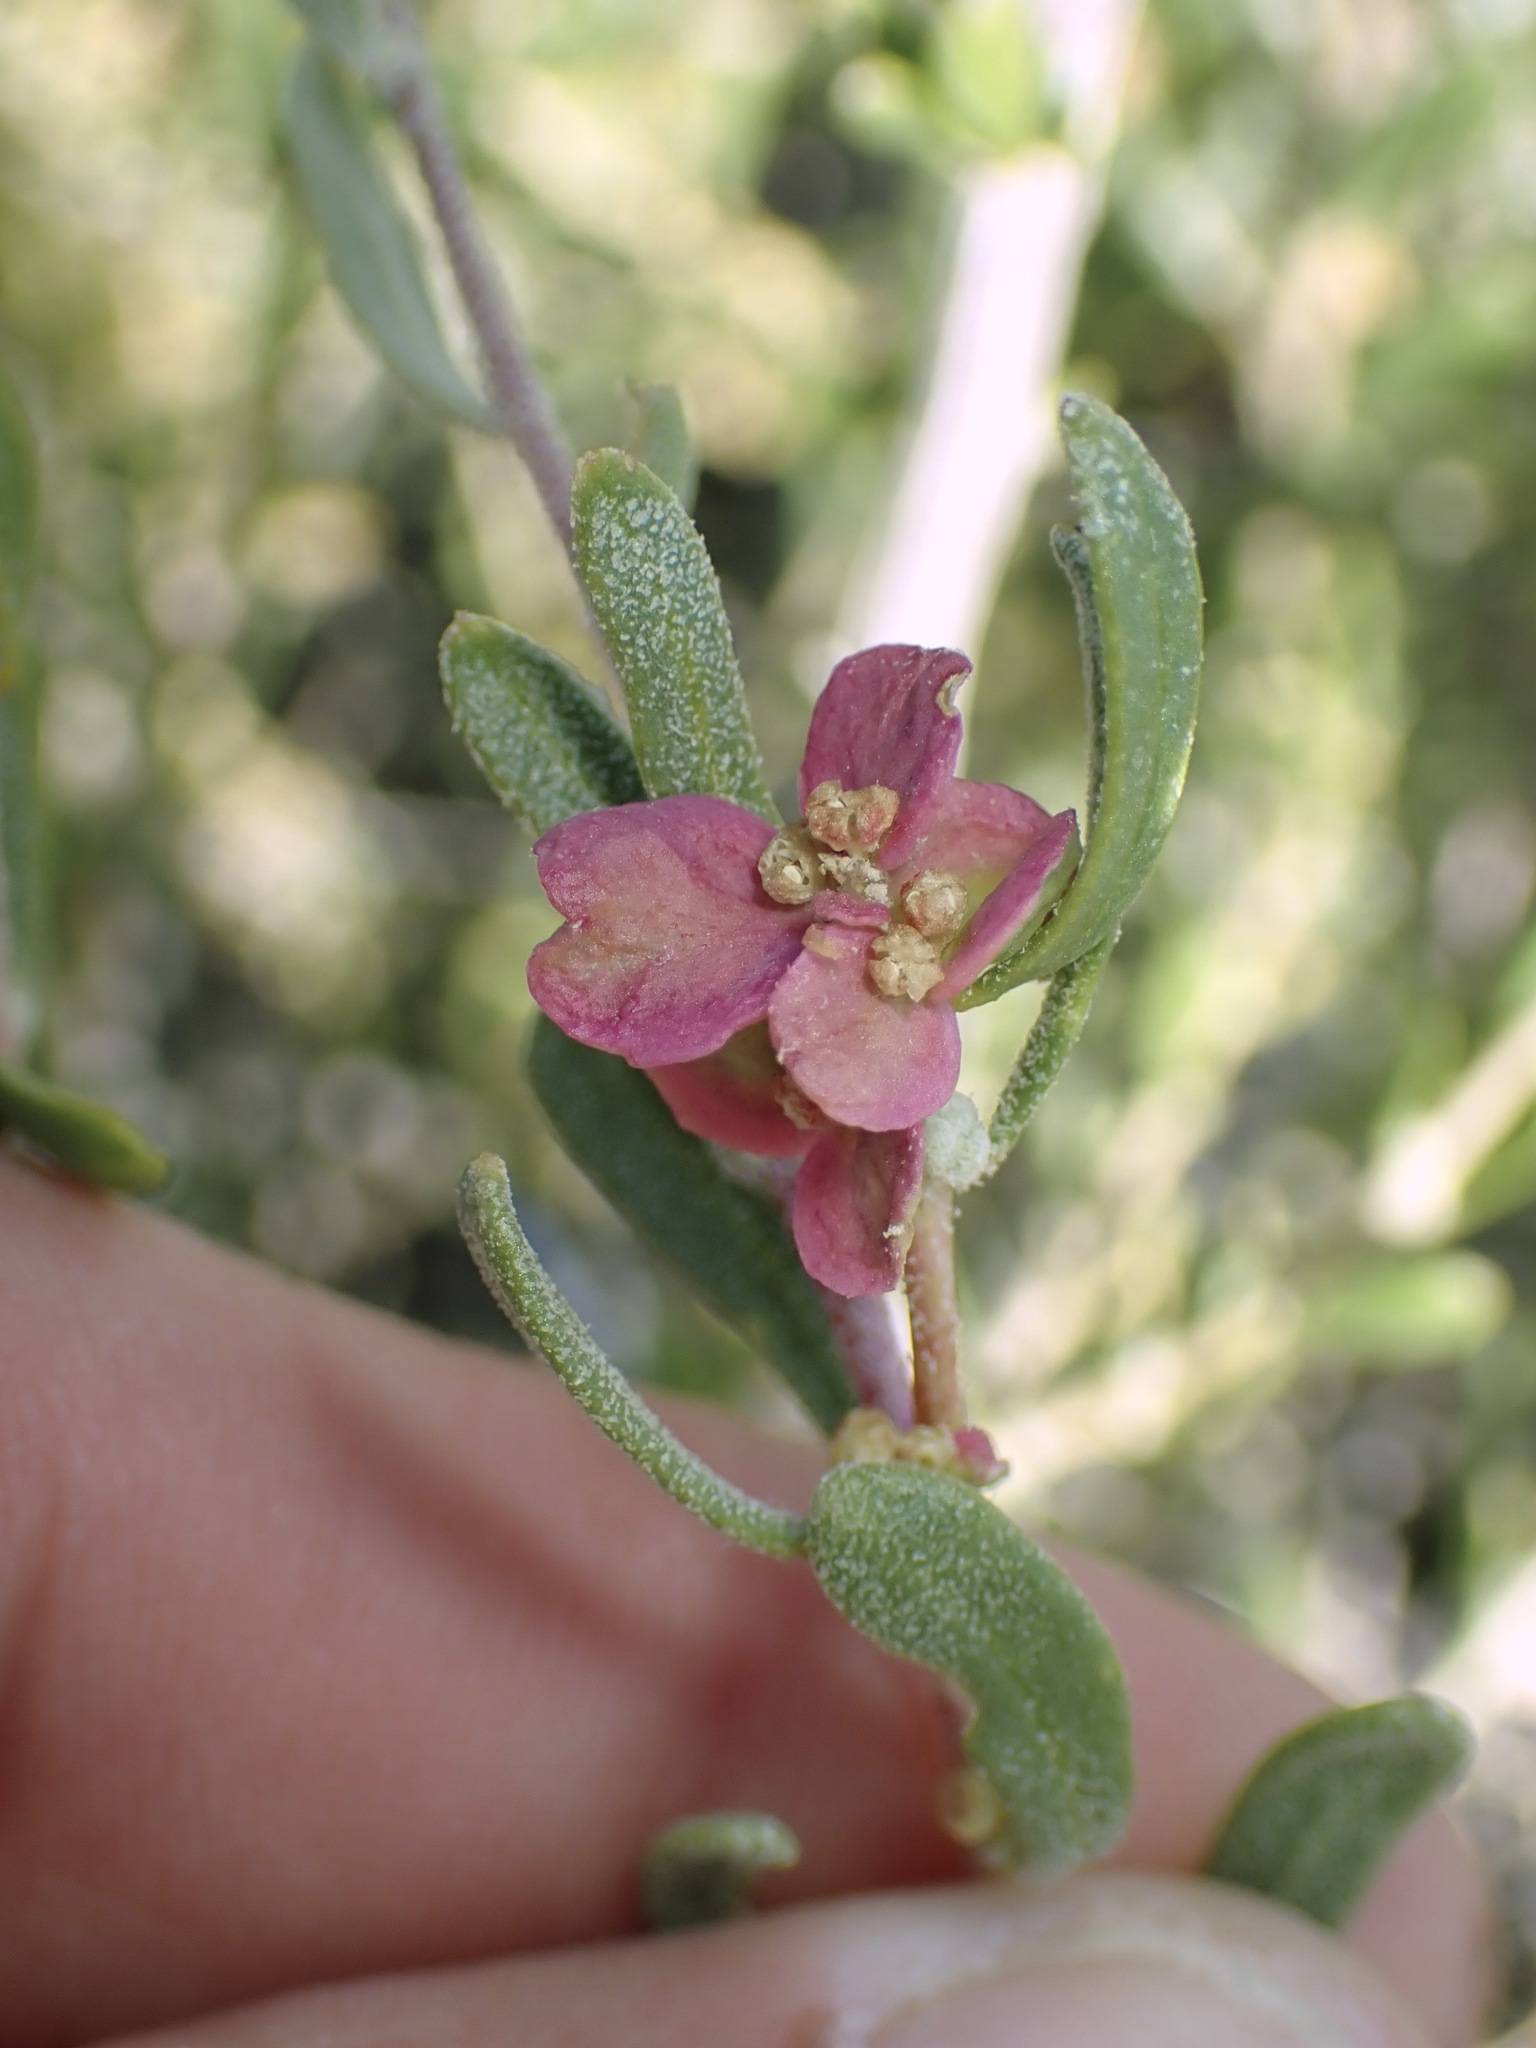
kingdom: Plantae
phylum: Tracheophyta
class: Magnoliopsida
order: Caryophyllales
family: Amaranthaceae
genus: Grayia
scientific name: Grayia spinosa
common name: Spiny hopsage
